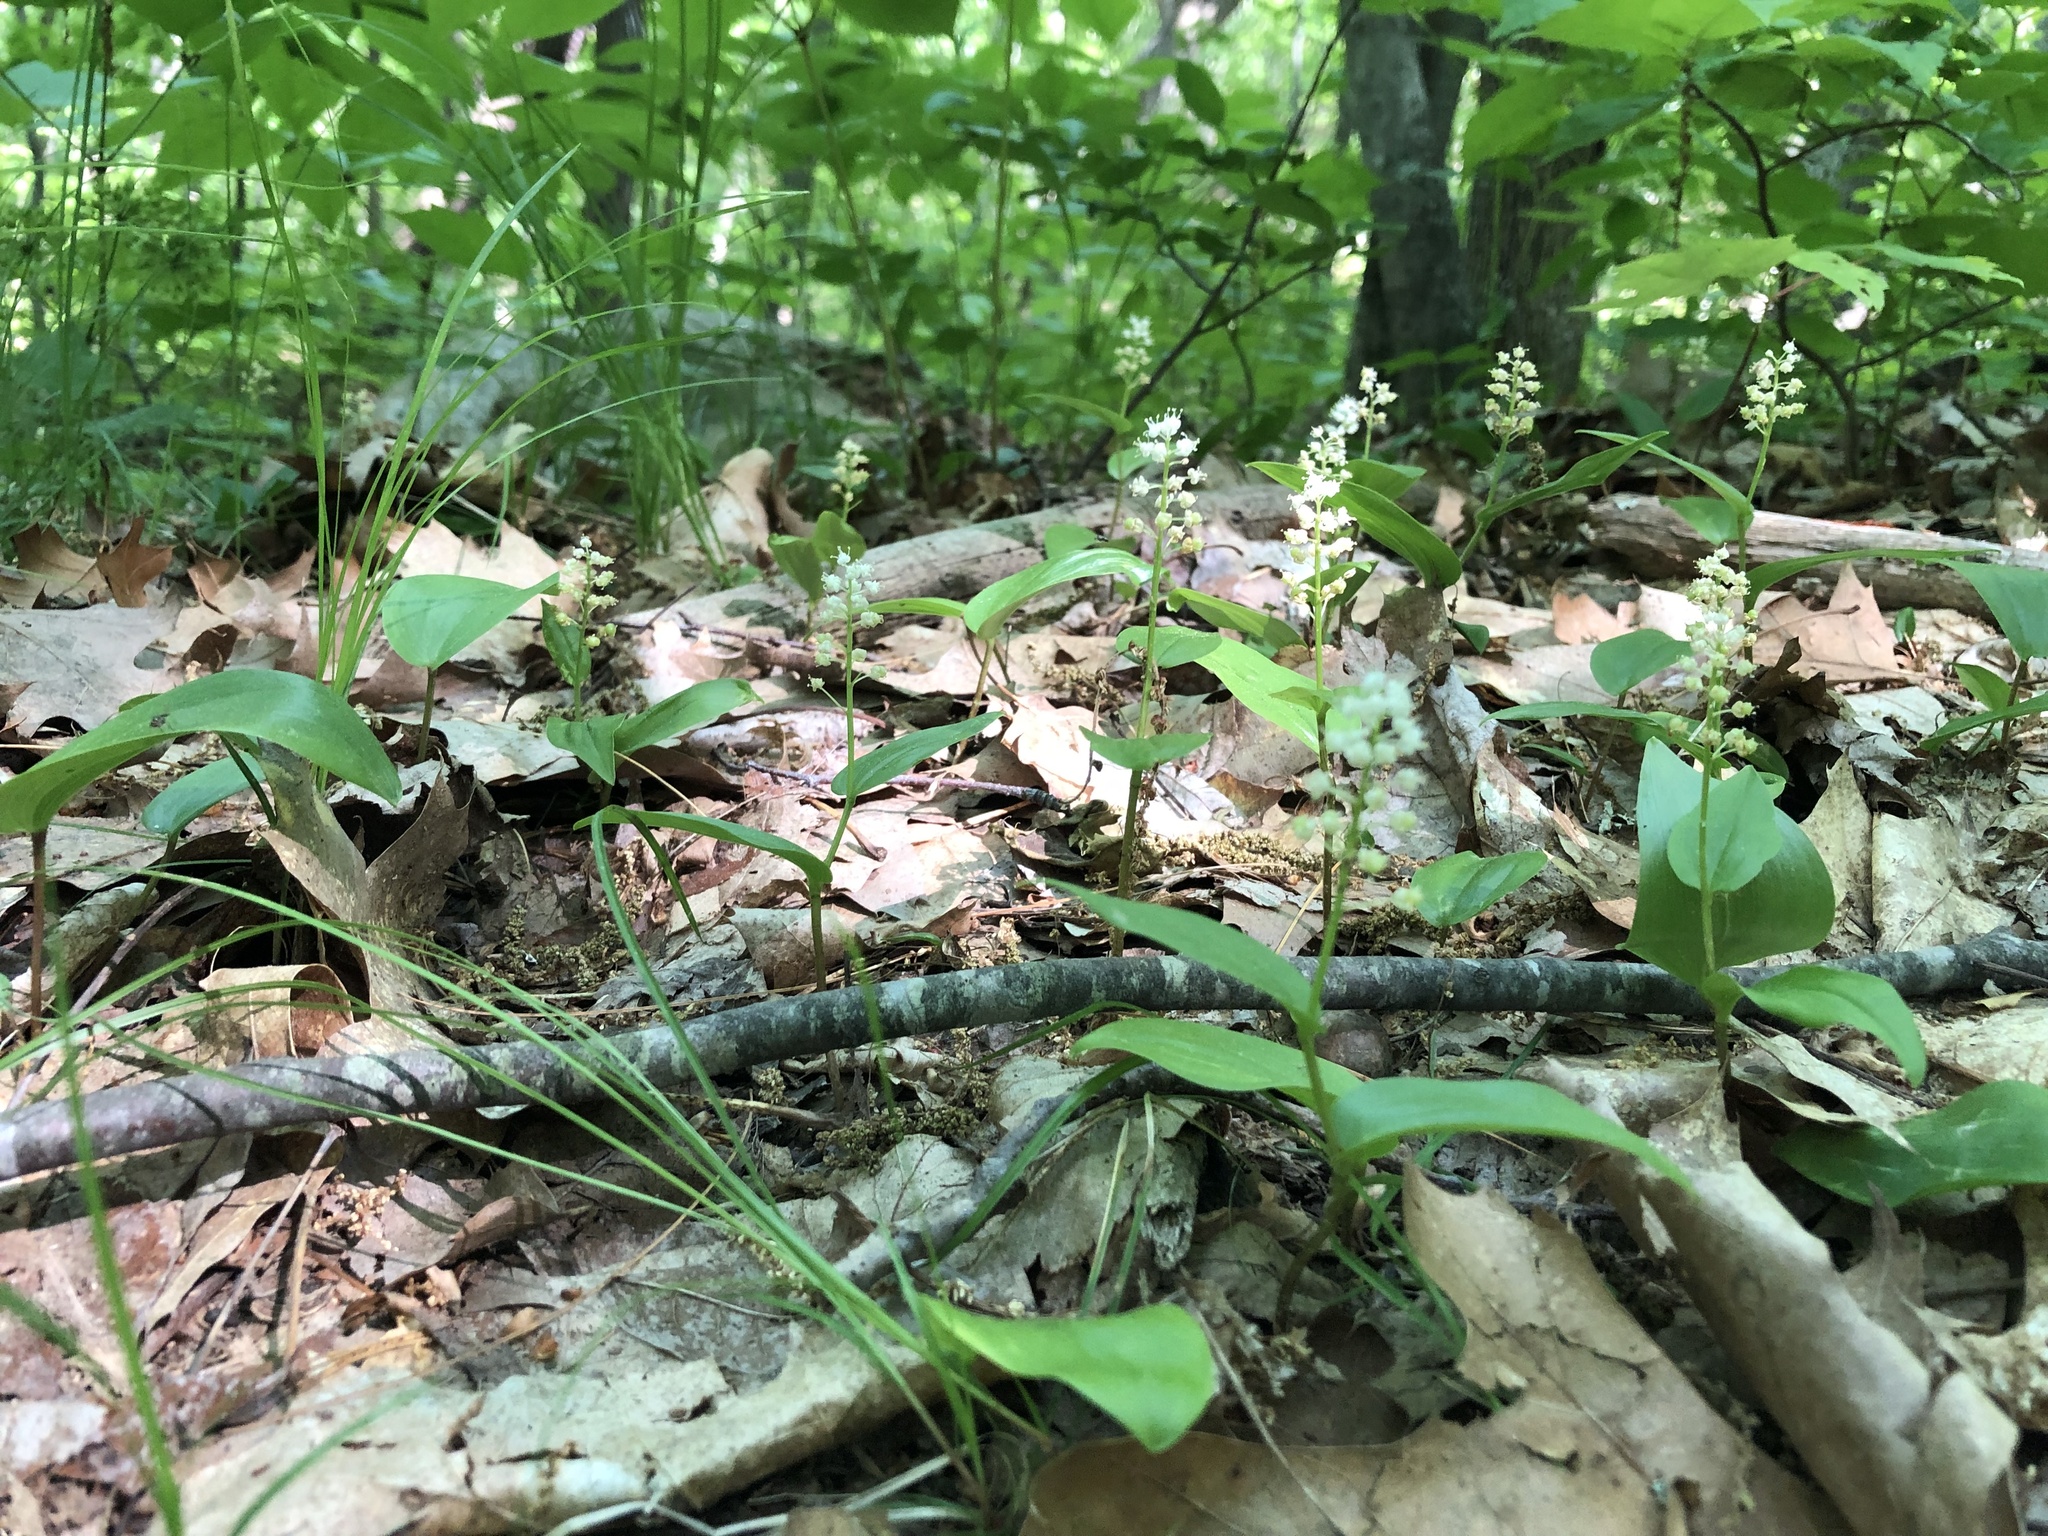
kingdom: Plantae
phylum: Tracheophyta
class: Liliopsida
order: Asparagales
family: Asparagaceae
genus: Maianthemum
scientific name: Maianthemum canadense
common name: False lily-of-the-valley
